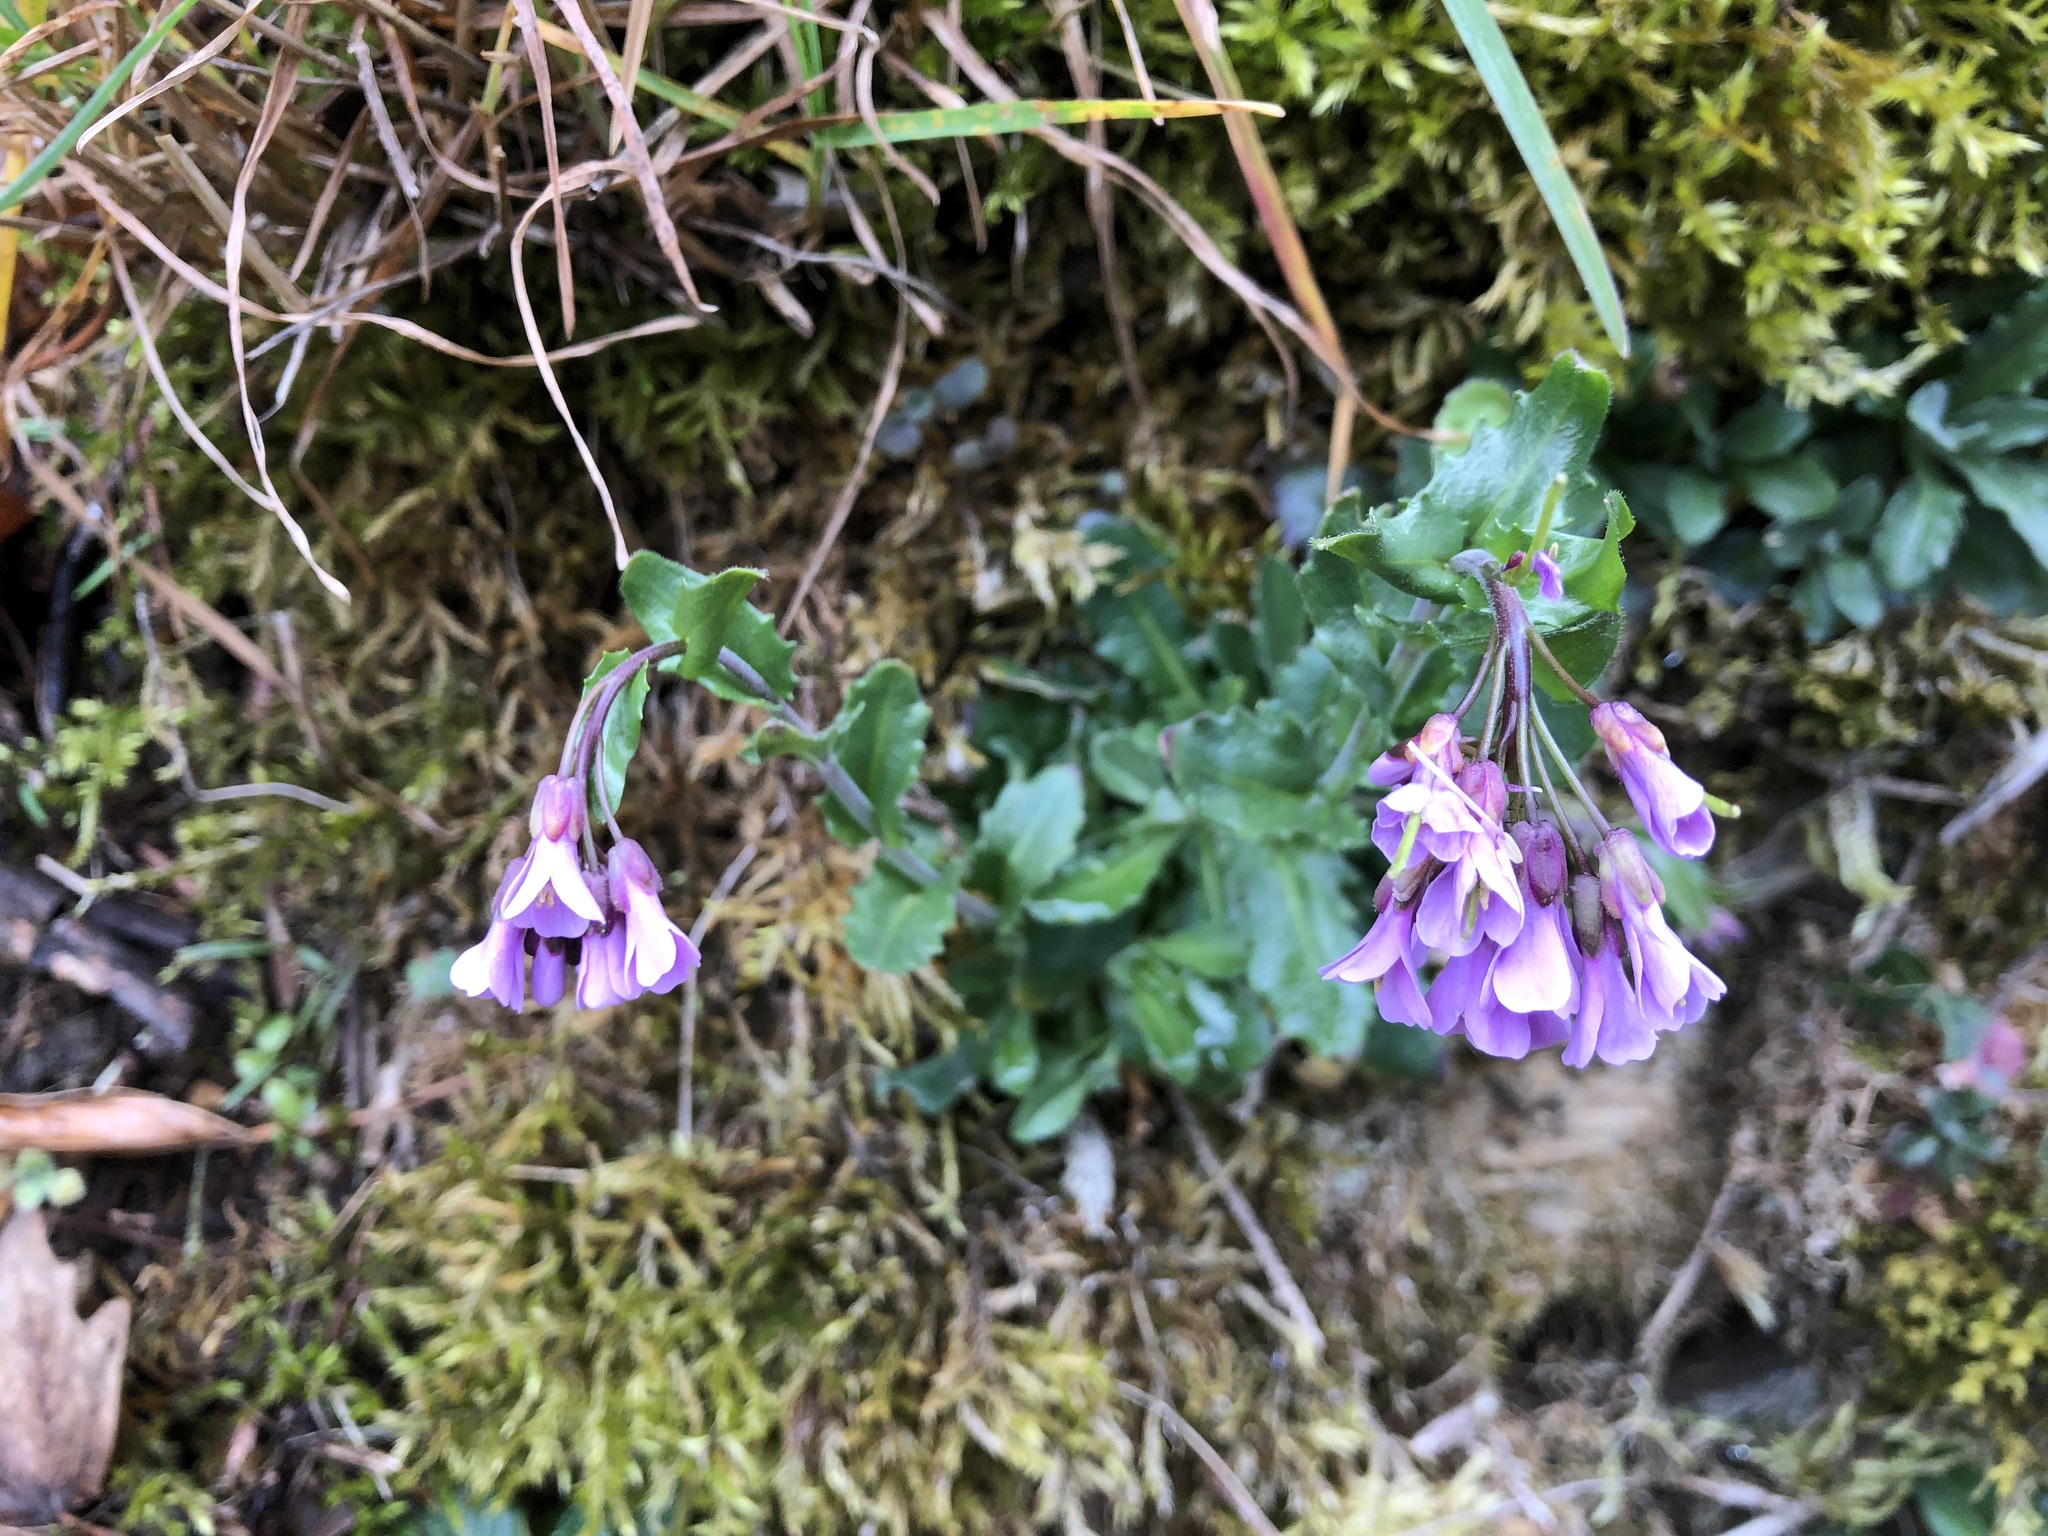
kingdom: Plantae
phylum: Tracheophyta
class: Magnoliopsida
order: Brassicales
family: Brassicaceae
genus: Arabis
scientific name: Arabis collina
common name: Rosy cress
